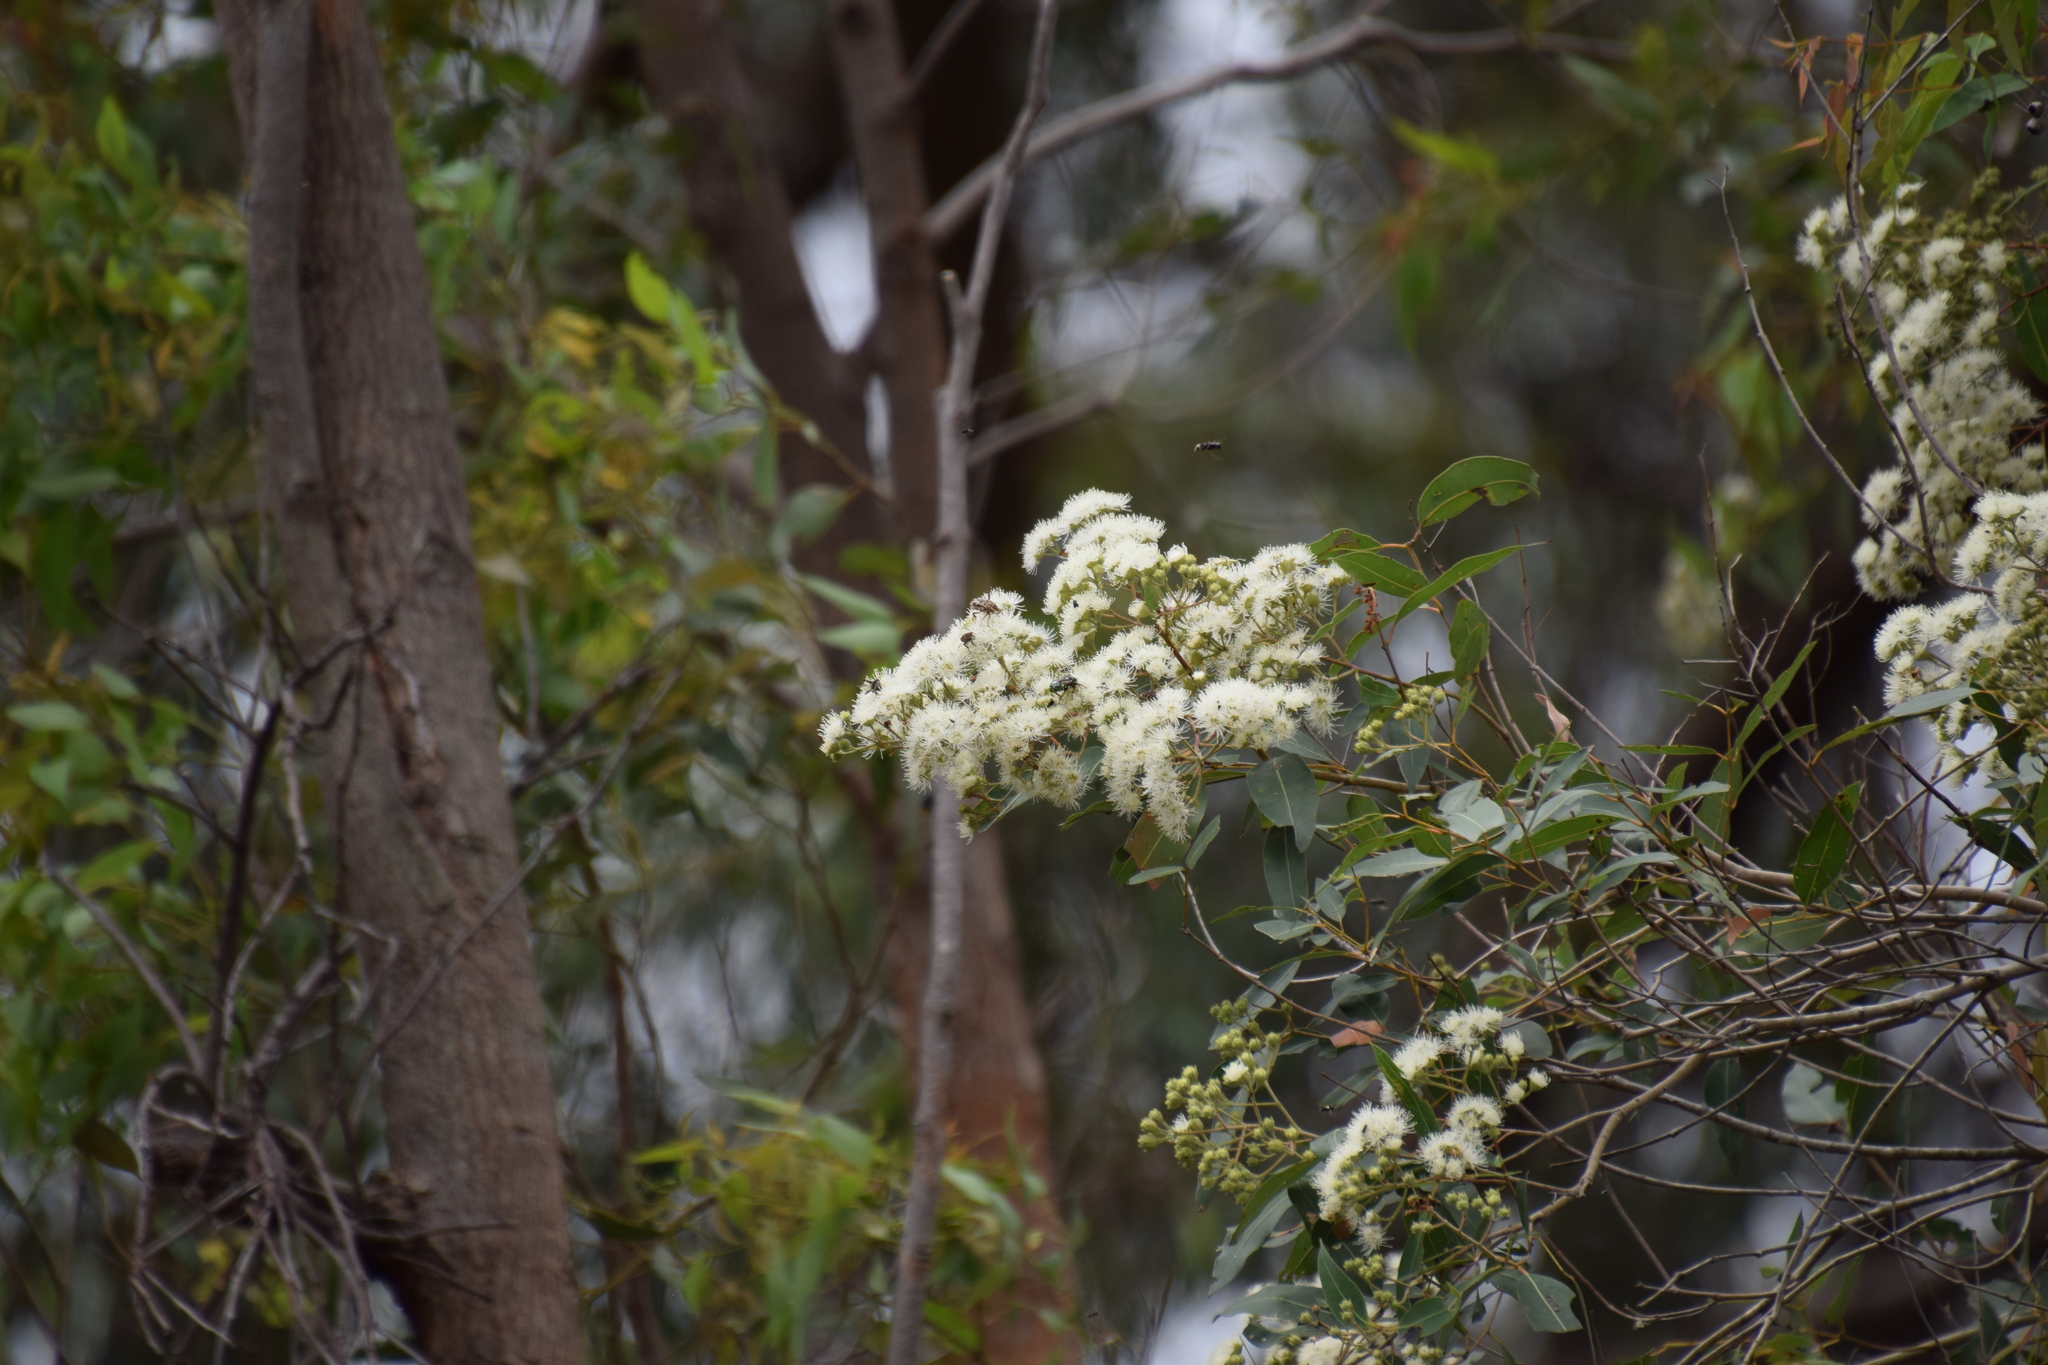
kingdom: Plantae
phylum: Tracheophyta
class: Magnoliopsida
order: Myrtales
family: Myrtaceae
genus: Angophora
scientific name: Angophora floribunda
